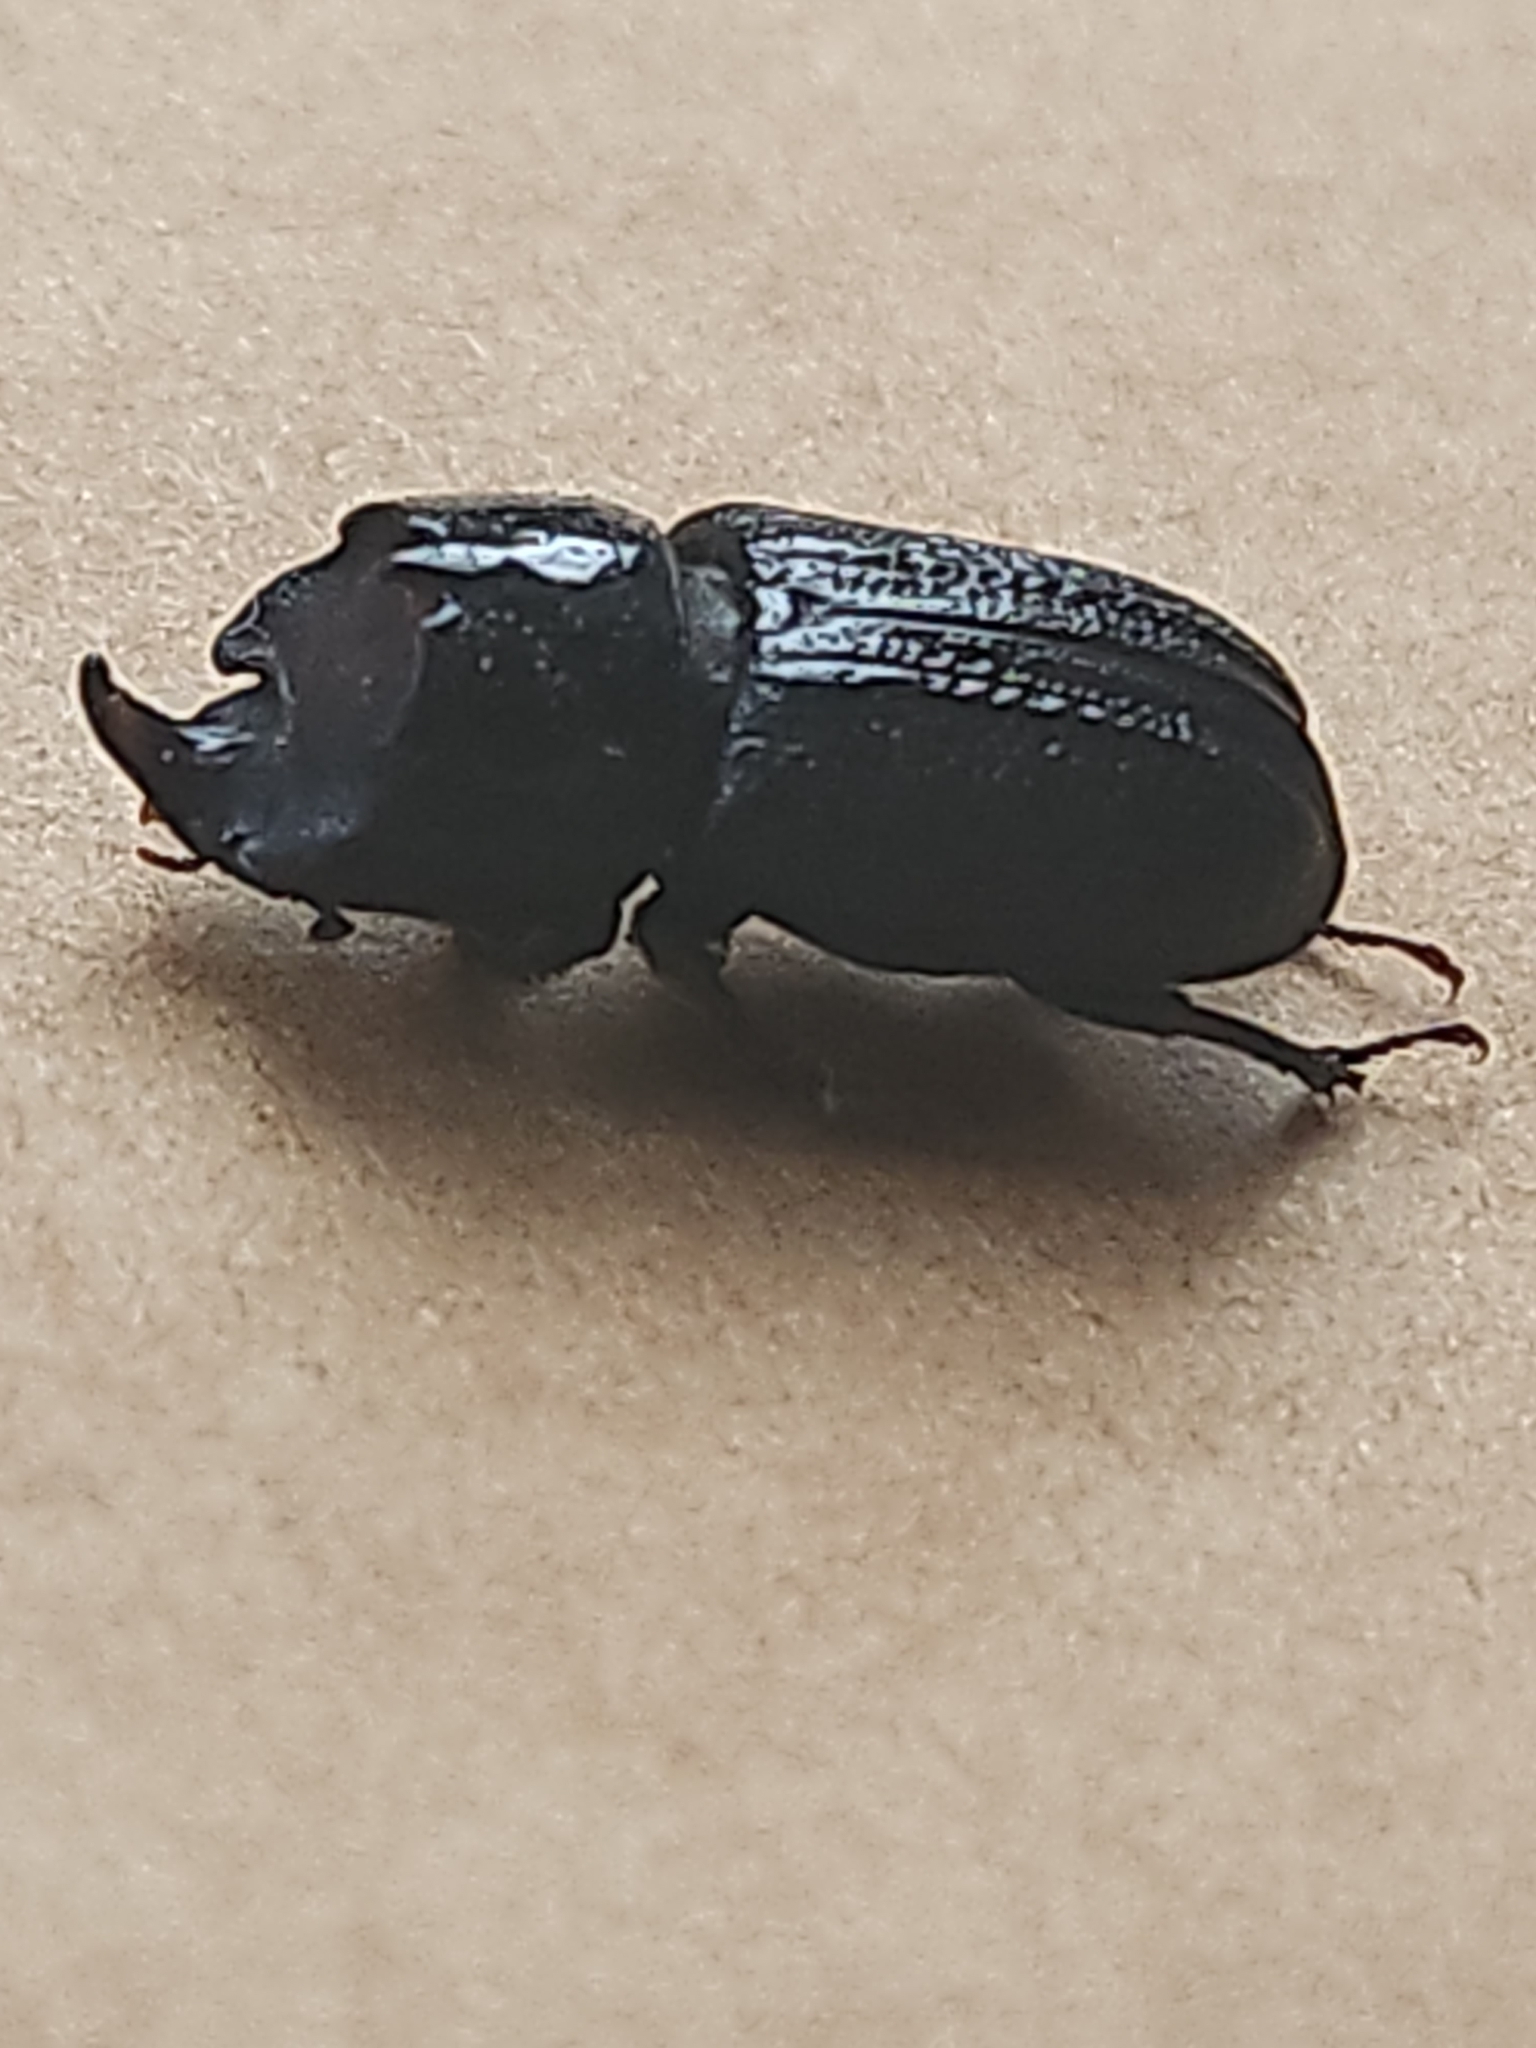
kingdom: Animalia
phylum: Arthropoda
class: Insecta
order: Coleoptera
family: Lucanidae
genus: Sinodendron
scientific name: Sinodendron cylindricum
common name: Rhinoceros beetle
